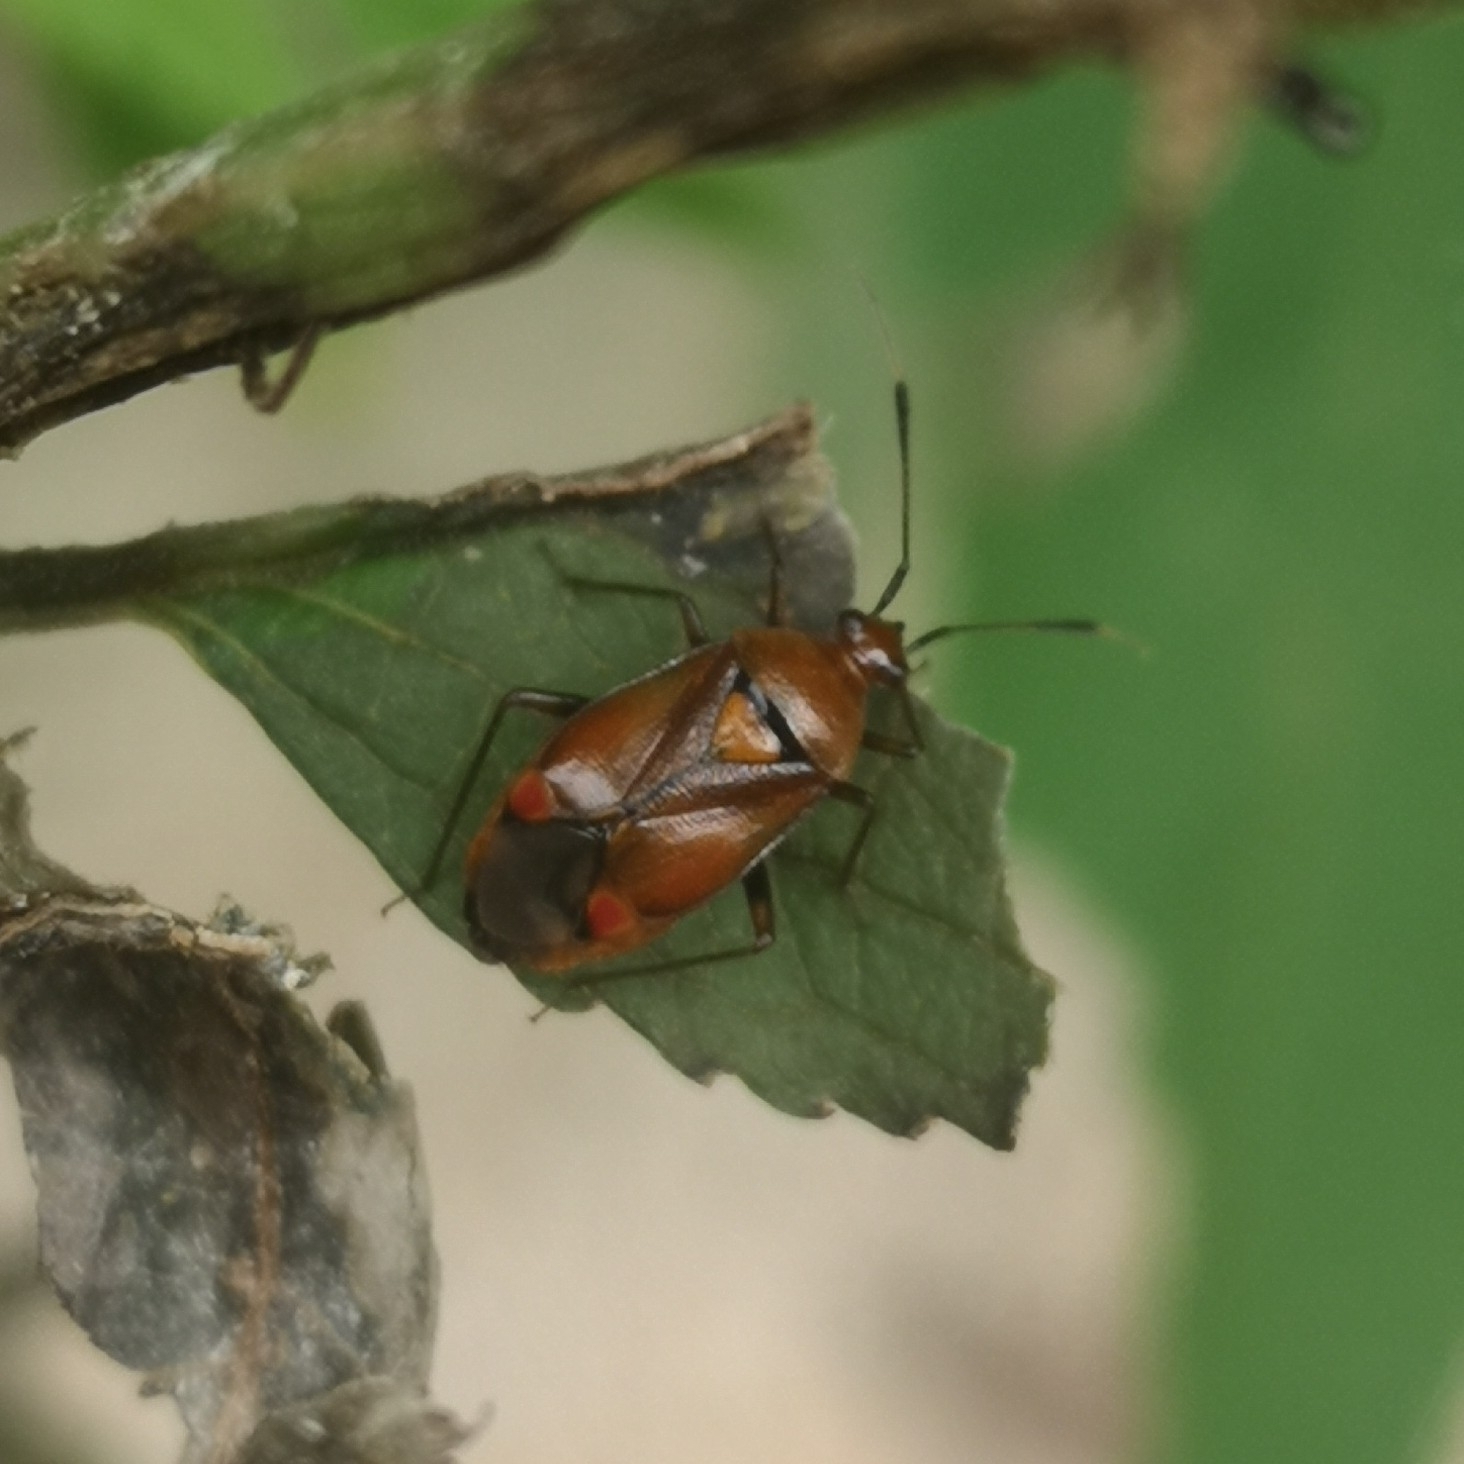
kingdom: Animalia
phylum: Arthropoda
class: Insecta
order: Hemiptera
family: Miridae
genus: Deraeocoris
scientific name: Deraeocoris ruber
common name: Plant bug
